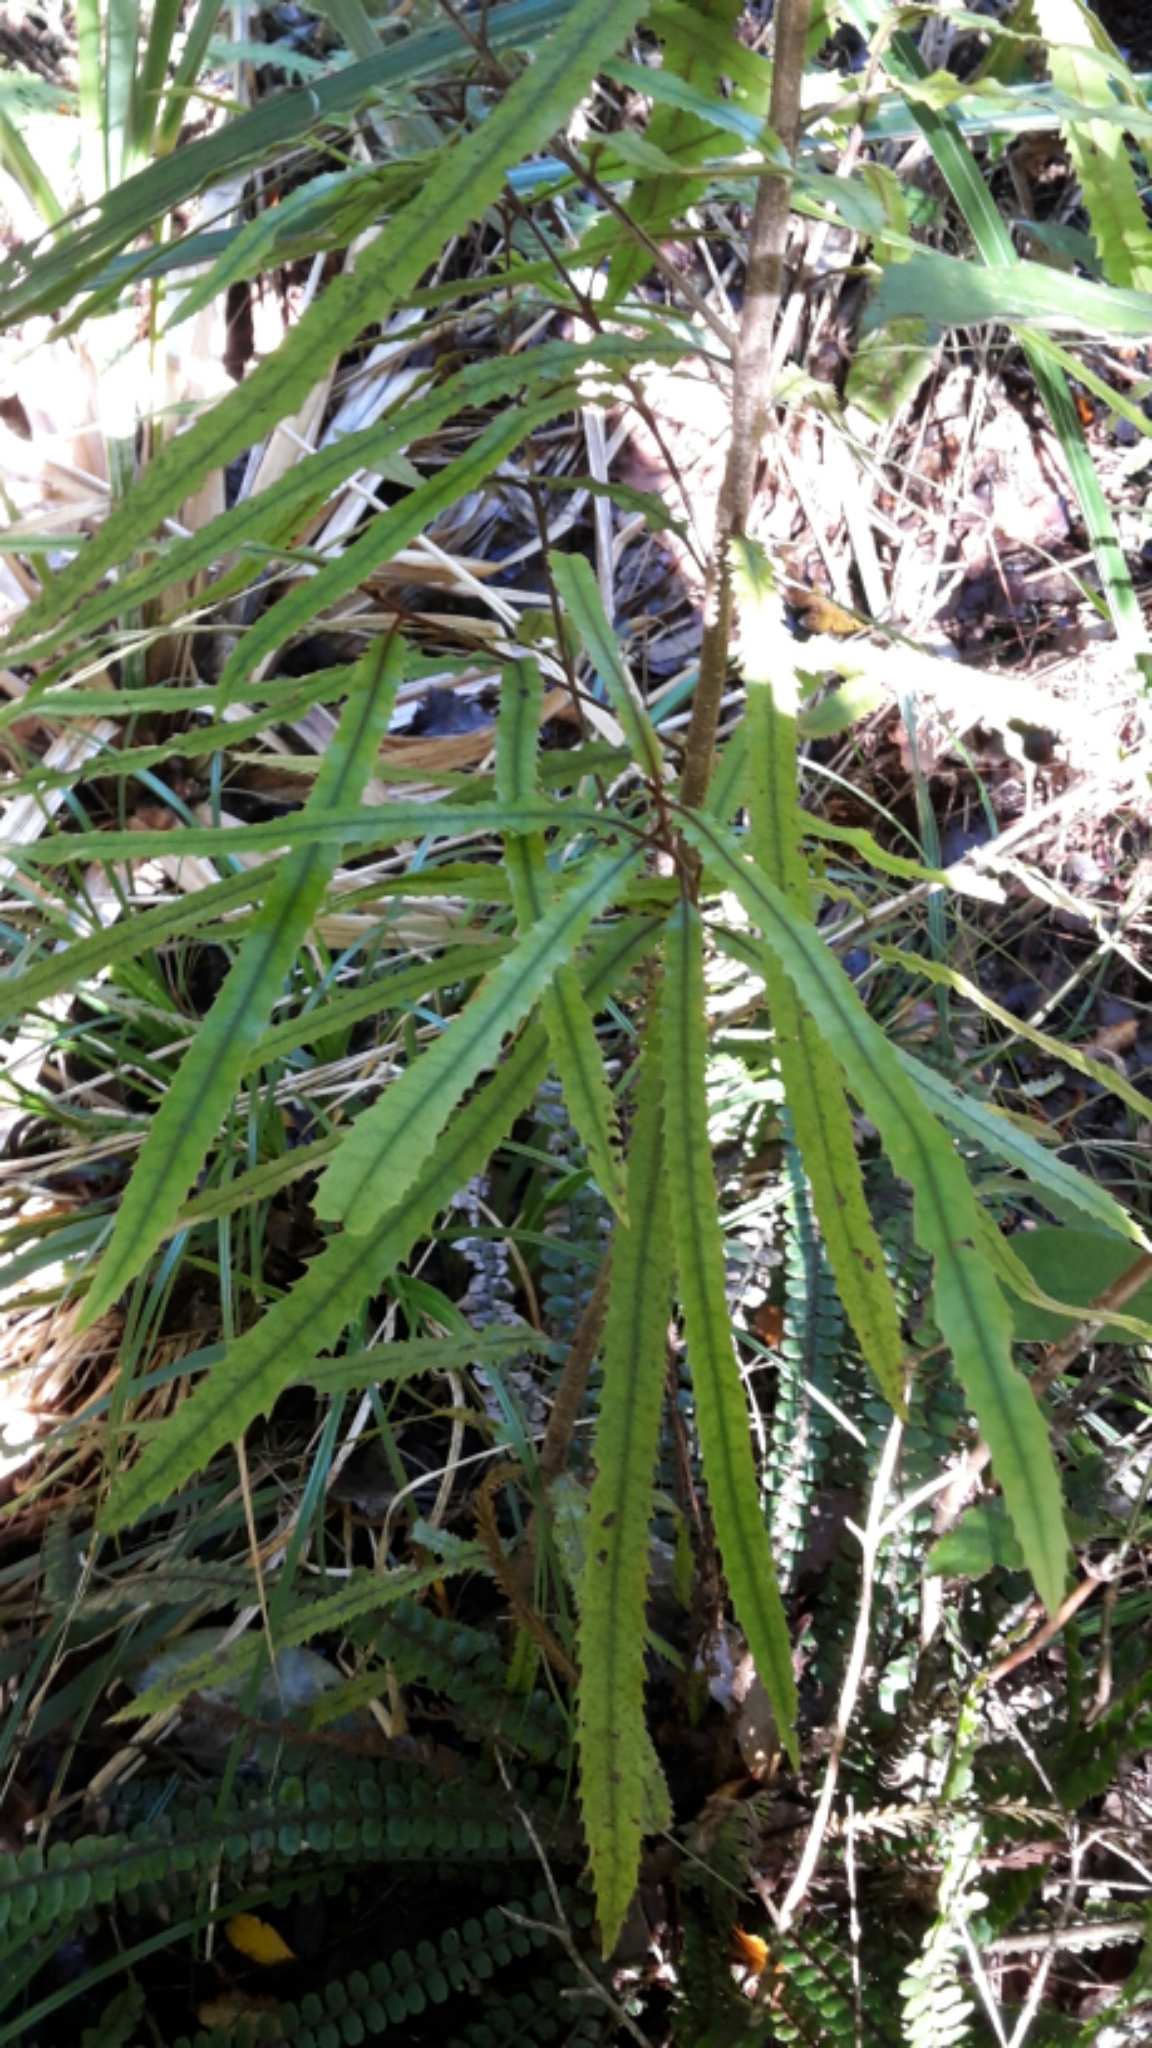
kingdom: Plantae
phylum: Tracheophyta
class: Magnoliopsida
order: Proteales
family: Proteaceae
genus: Knightia
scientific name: Knightia excelsa
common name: New zealand-honeysuckle
